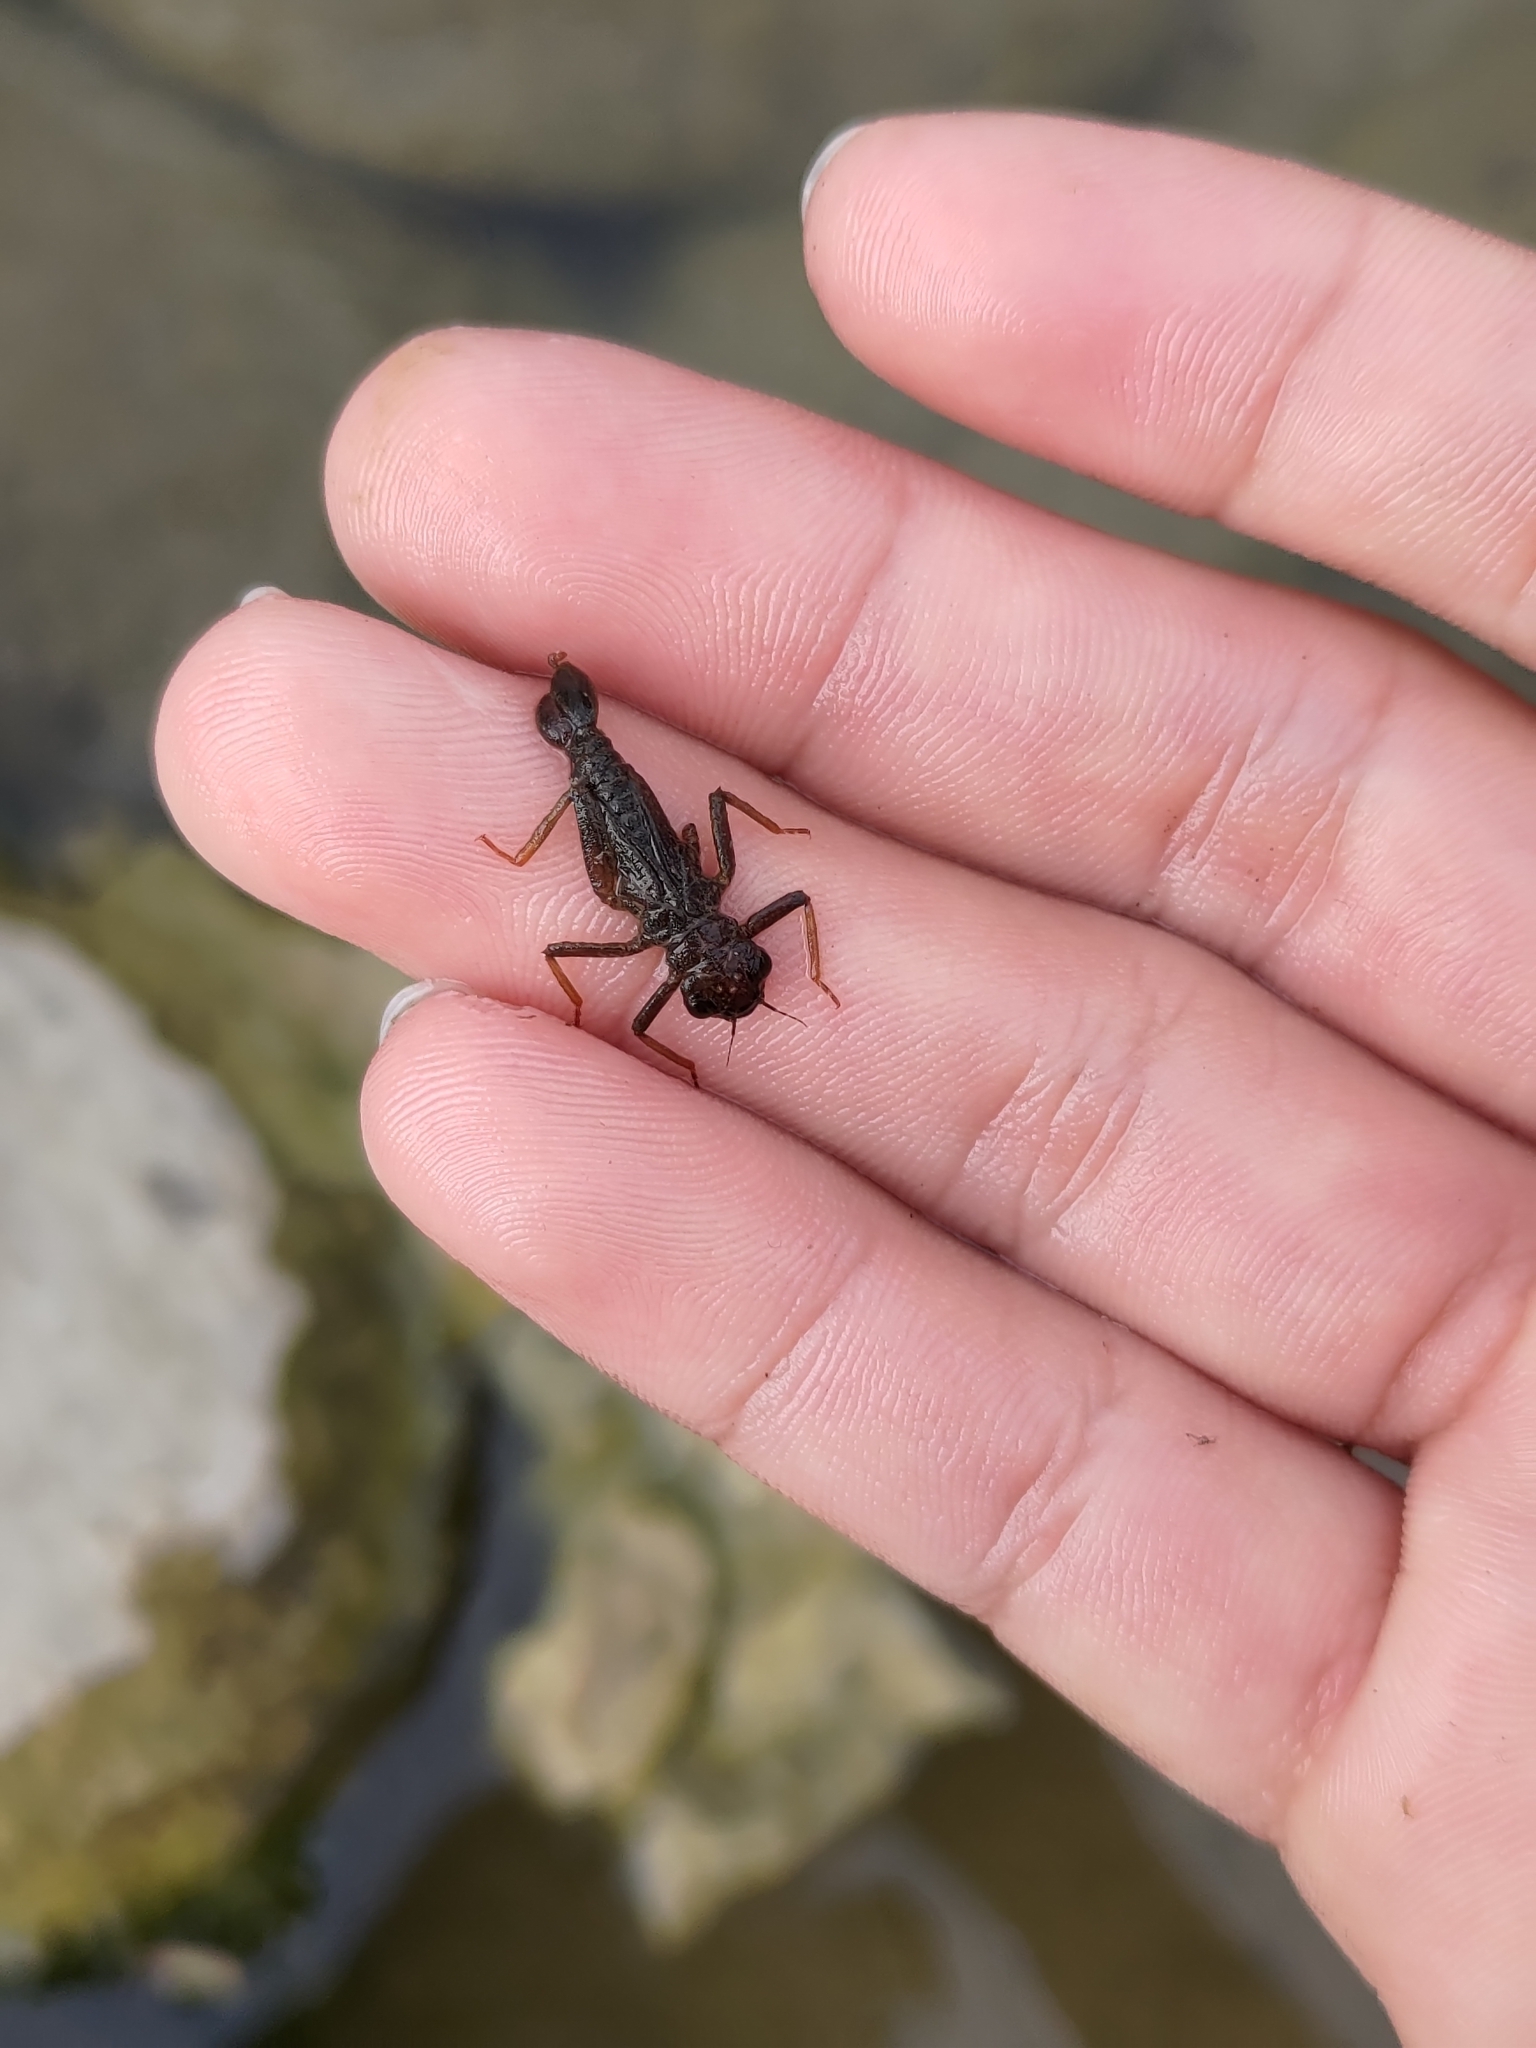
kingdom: Animalia
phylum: Arthropoda
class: Insecta
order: Odonata
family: Euphaeidae
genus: Euphaea
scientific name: Euphaea formosa
